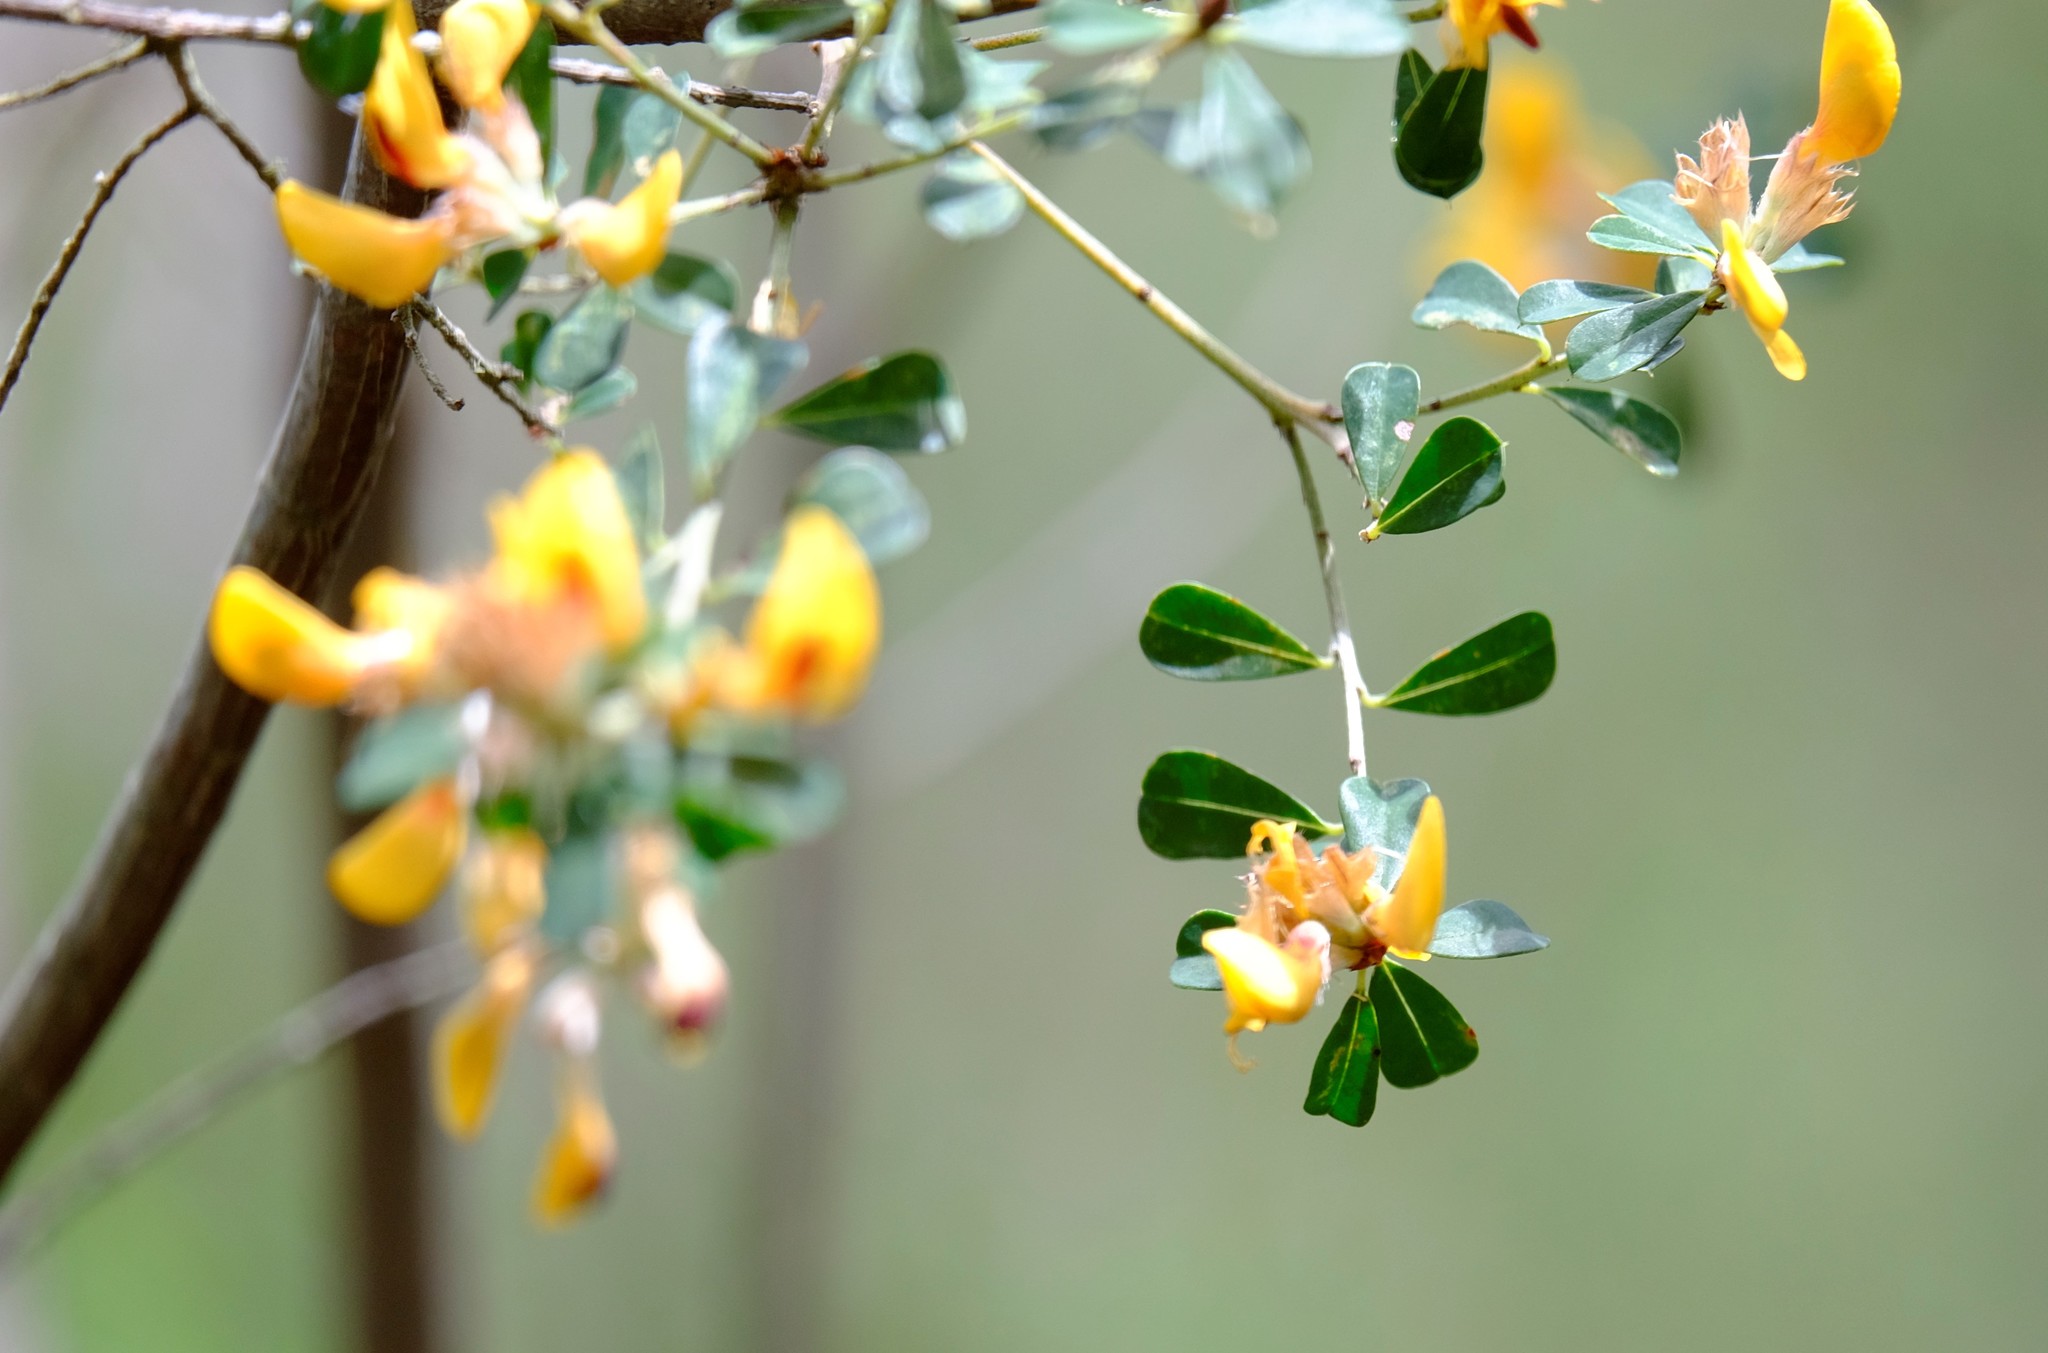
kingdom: Plantae
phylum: Tracheophyta
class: Magnoliopsida
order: Fabales
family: Fabaceae
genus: Pultenaea
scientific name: Pultenaea daphnoides
